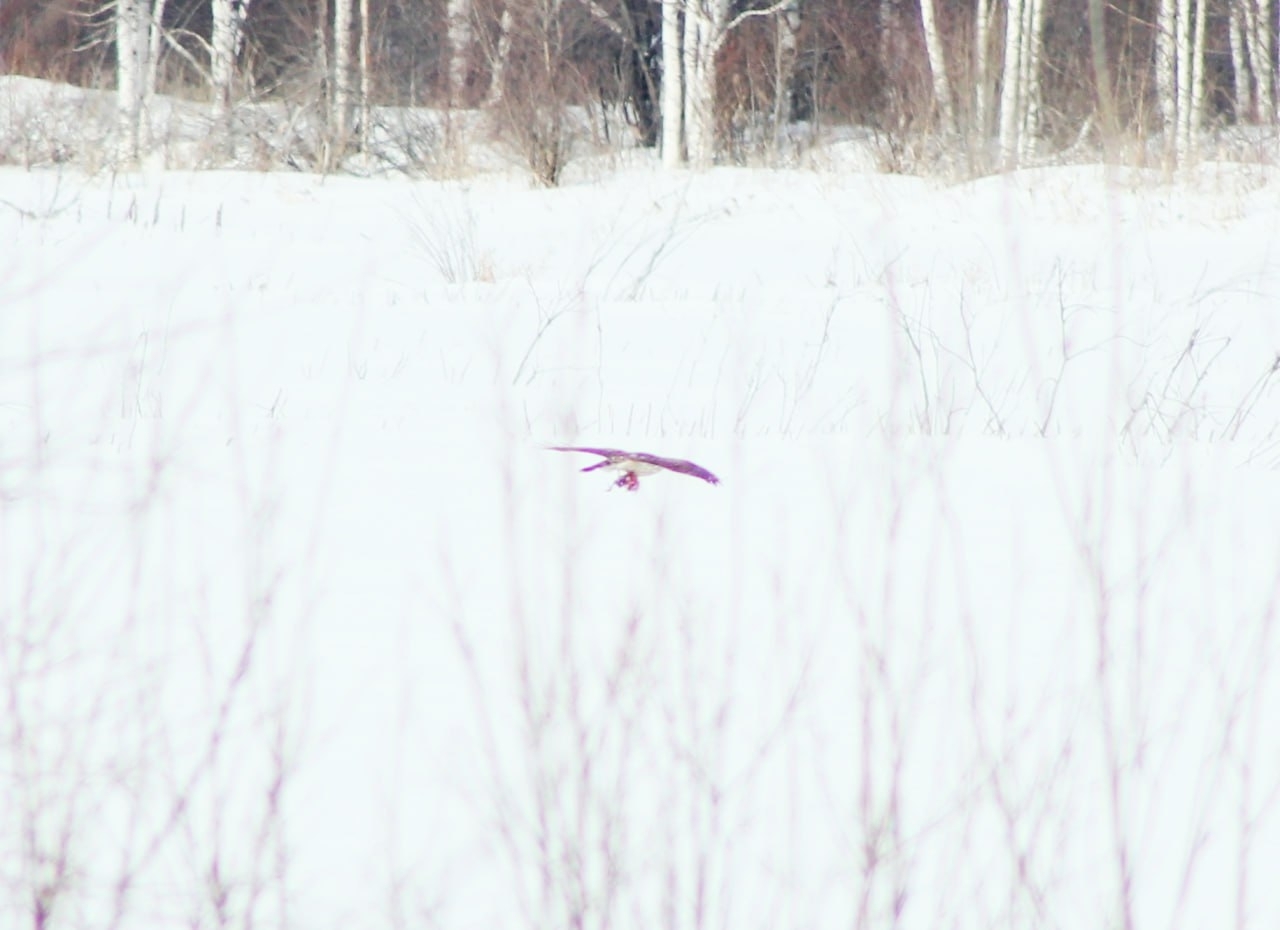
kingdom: Animalia
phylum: Chordata
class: Aves
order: Accipitriformes
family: Accipitridae
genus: Accipiter
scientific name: Accipiter gentilis
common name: Northern goshawk
